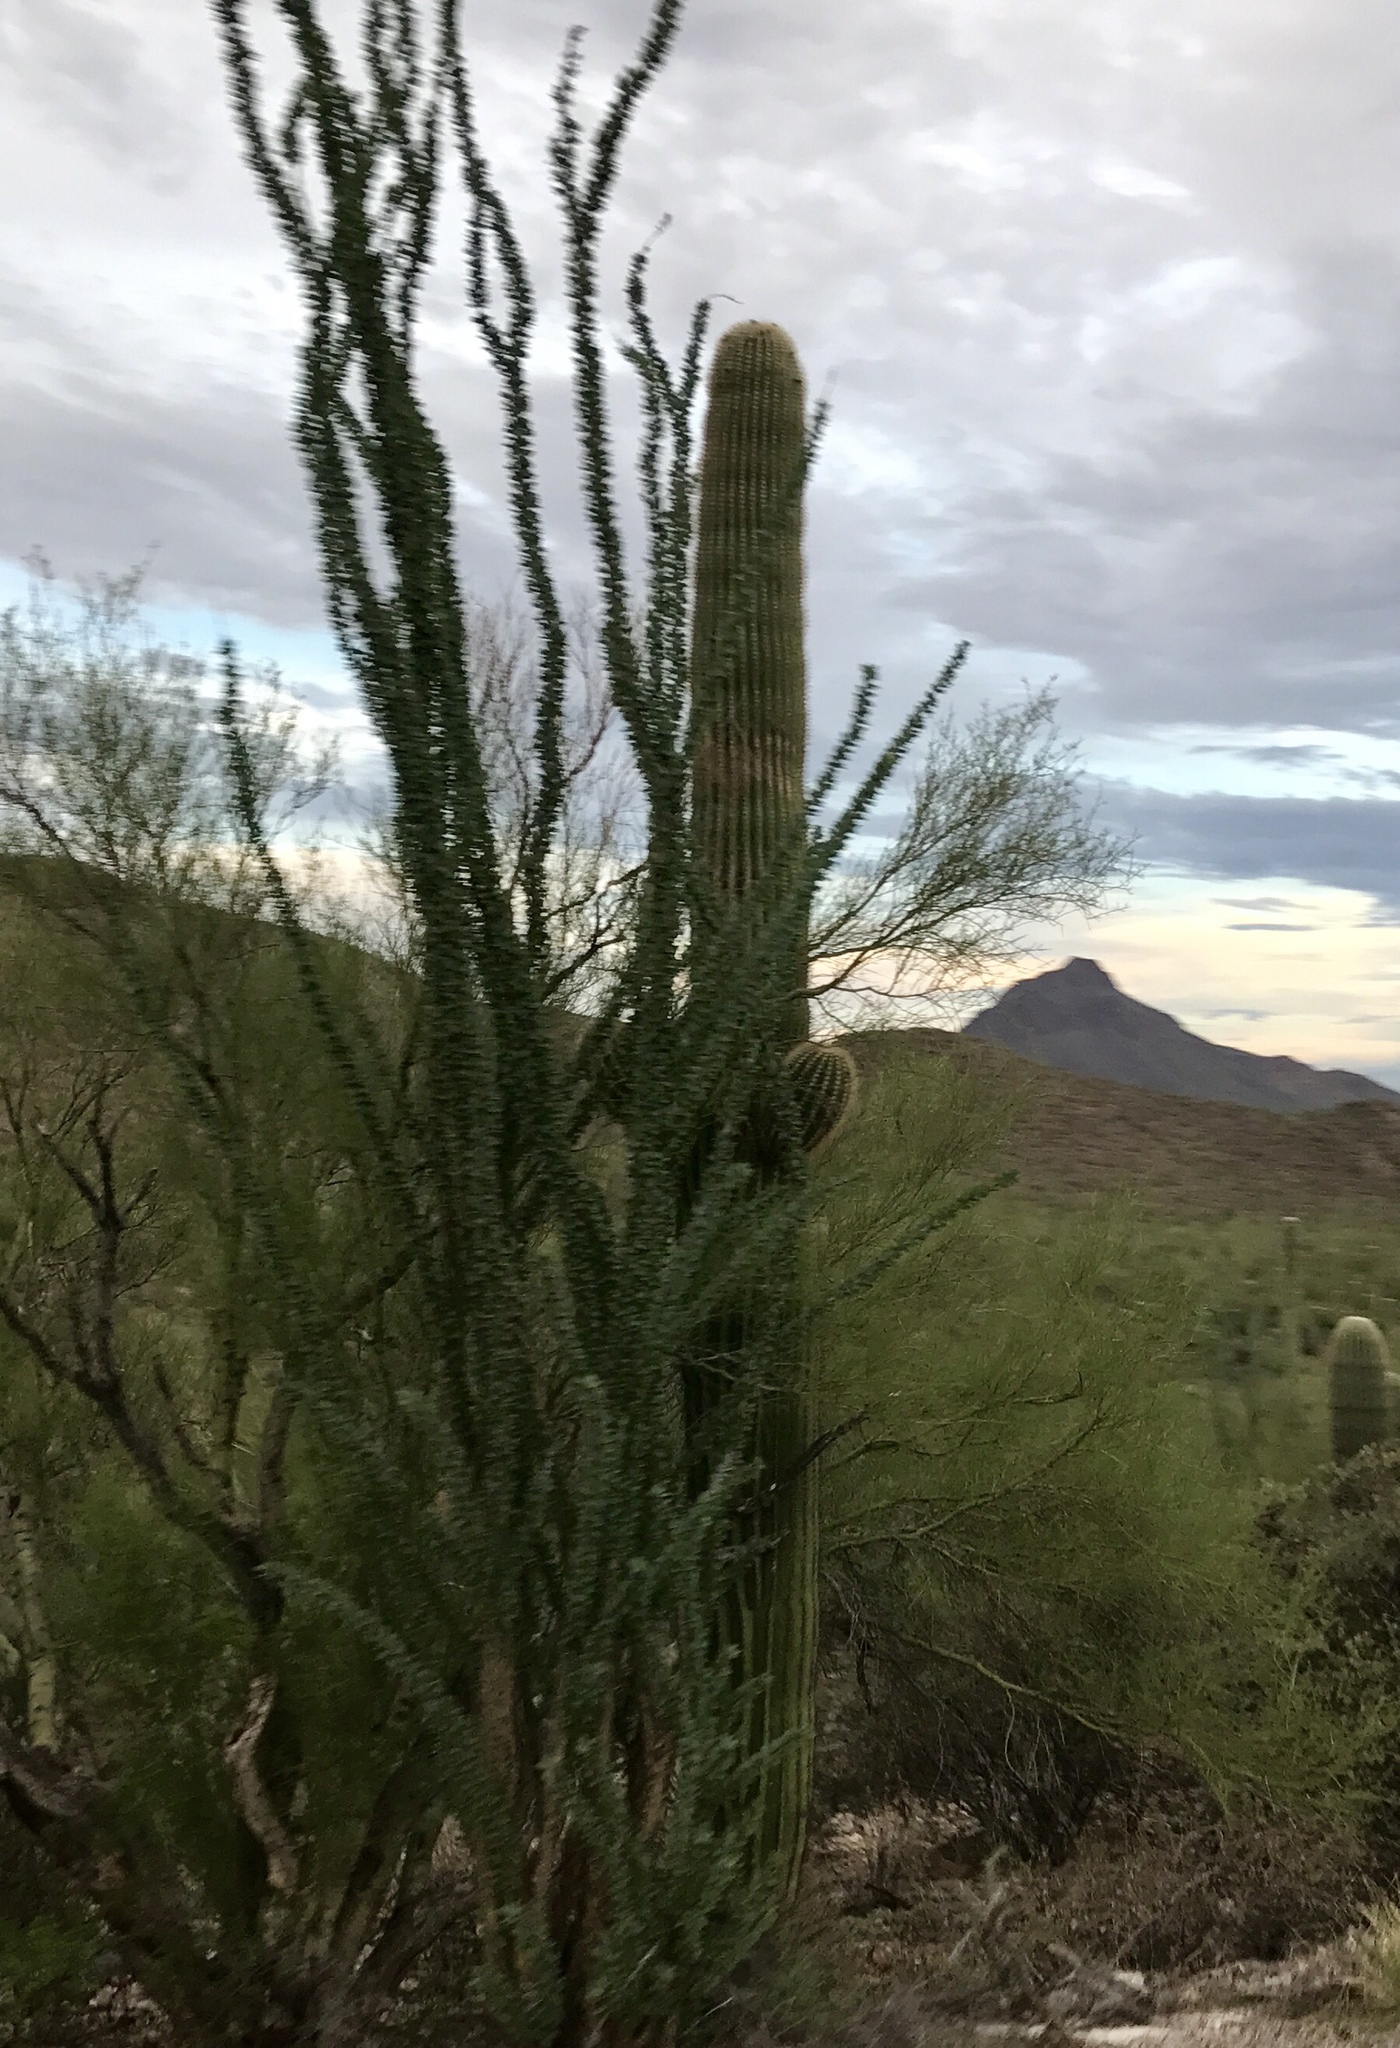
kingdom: Plantae
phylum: Tracheophyta
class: Magnoliopsida
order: Caryophyllales
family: Cactaceae
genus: Carnegiea
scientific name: Carnegiea gigantea
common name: Saguaro
